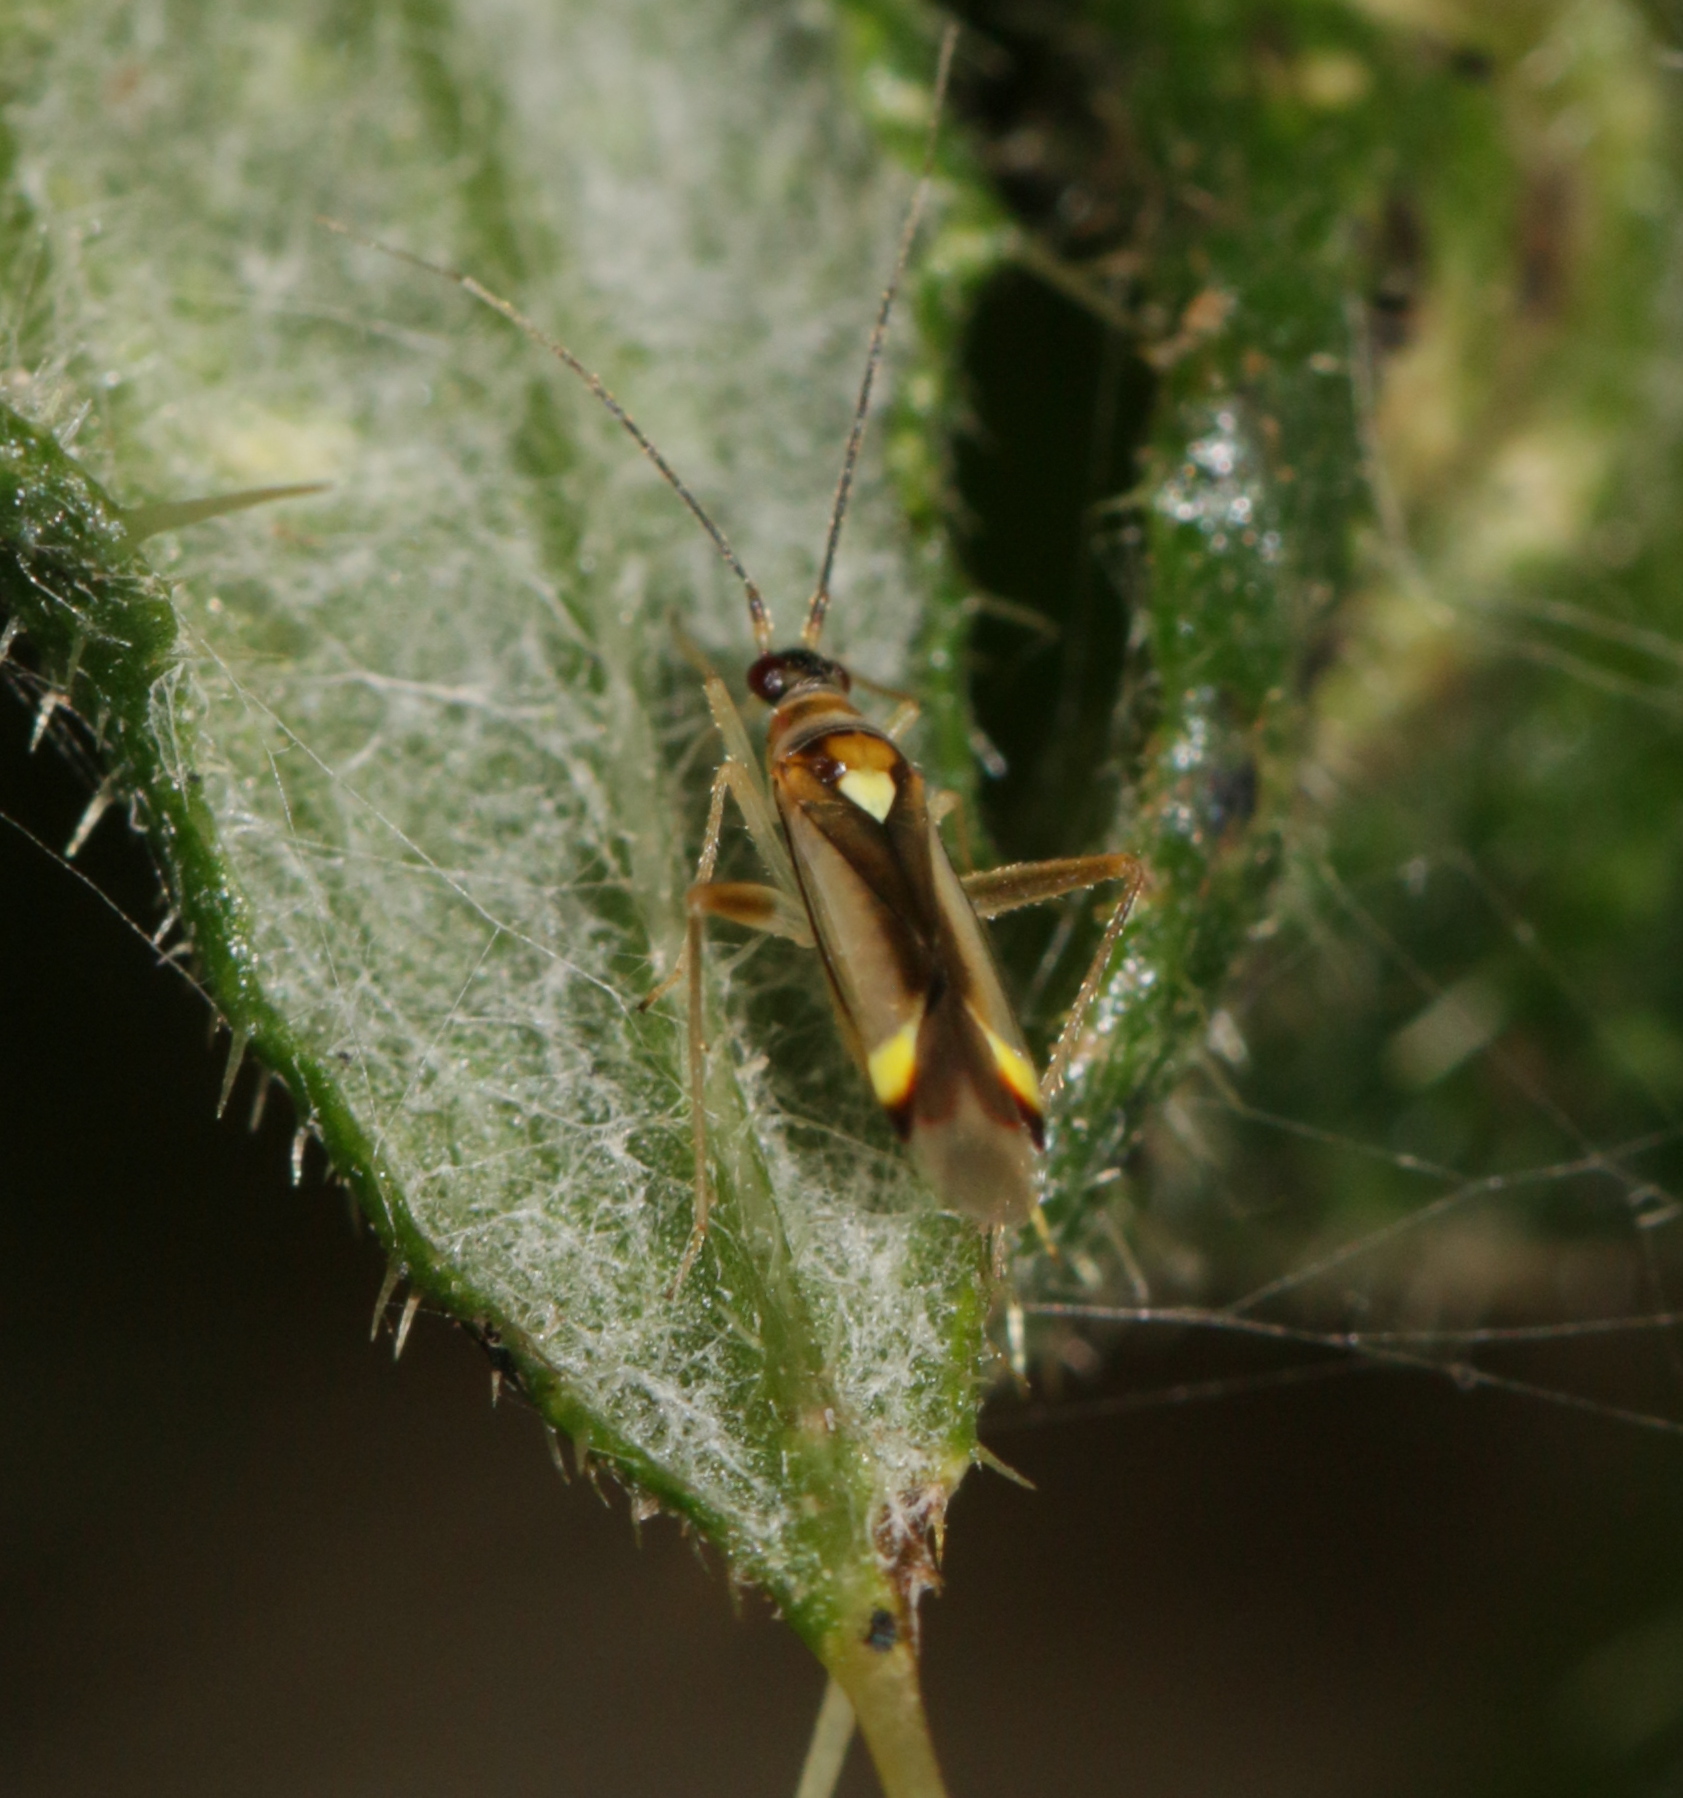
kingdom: Animalia
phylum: Arthropoda
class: Insecta
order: Hemiptera
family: Miridae
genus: Campyloneura
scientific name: Campyloneura virgula
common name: Predatory bug
